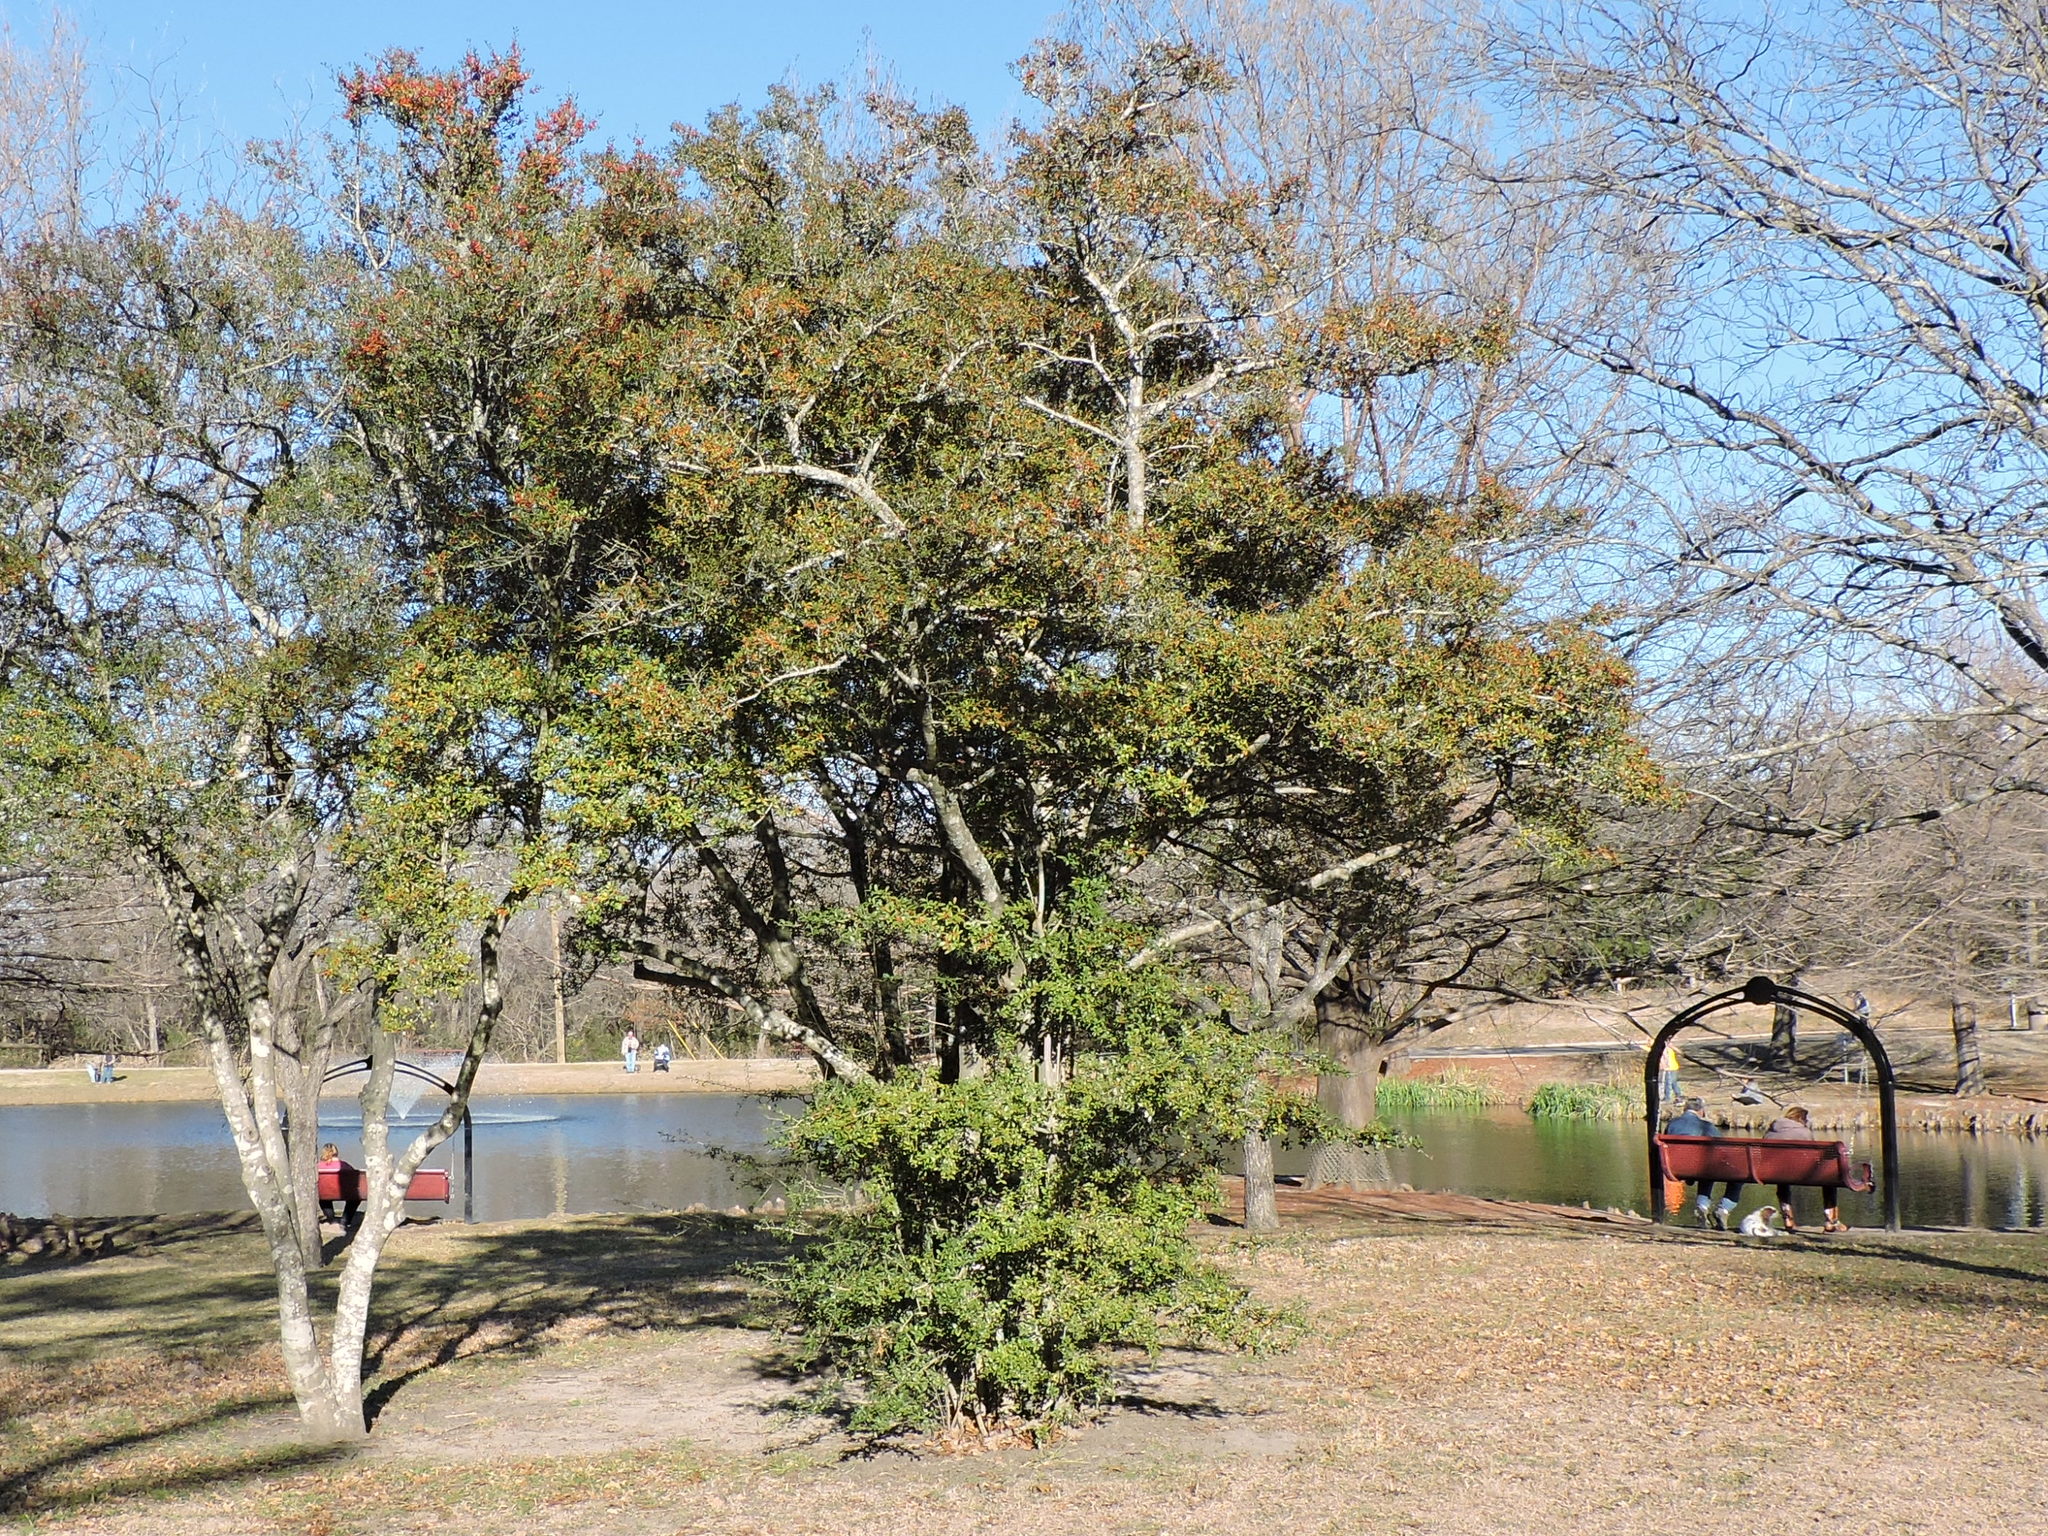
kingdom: Plantae
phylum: Tracheophyta
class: Magnoliopsida
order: Aquifoliales
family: Aquifoliaceae
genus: Ilex
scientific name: Ilex vomitoria
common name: Yaupon holly
